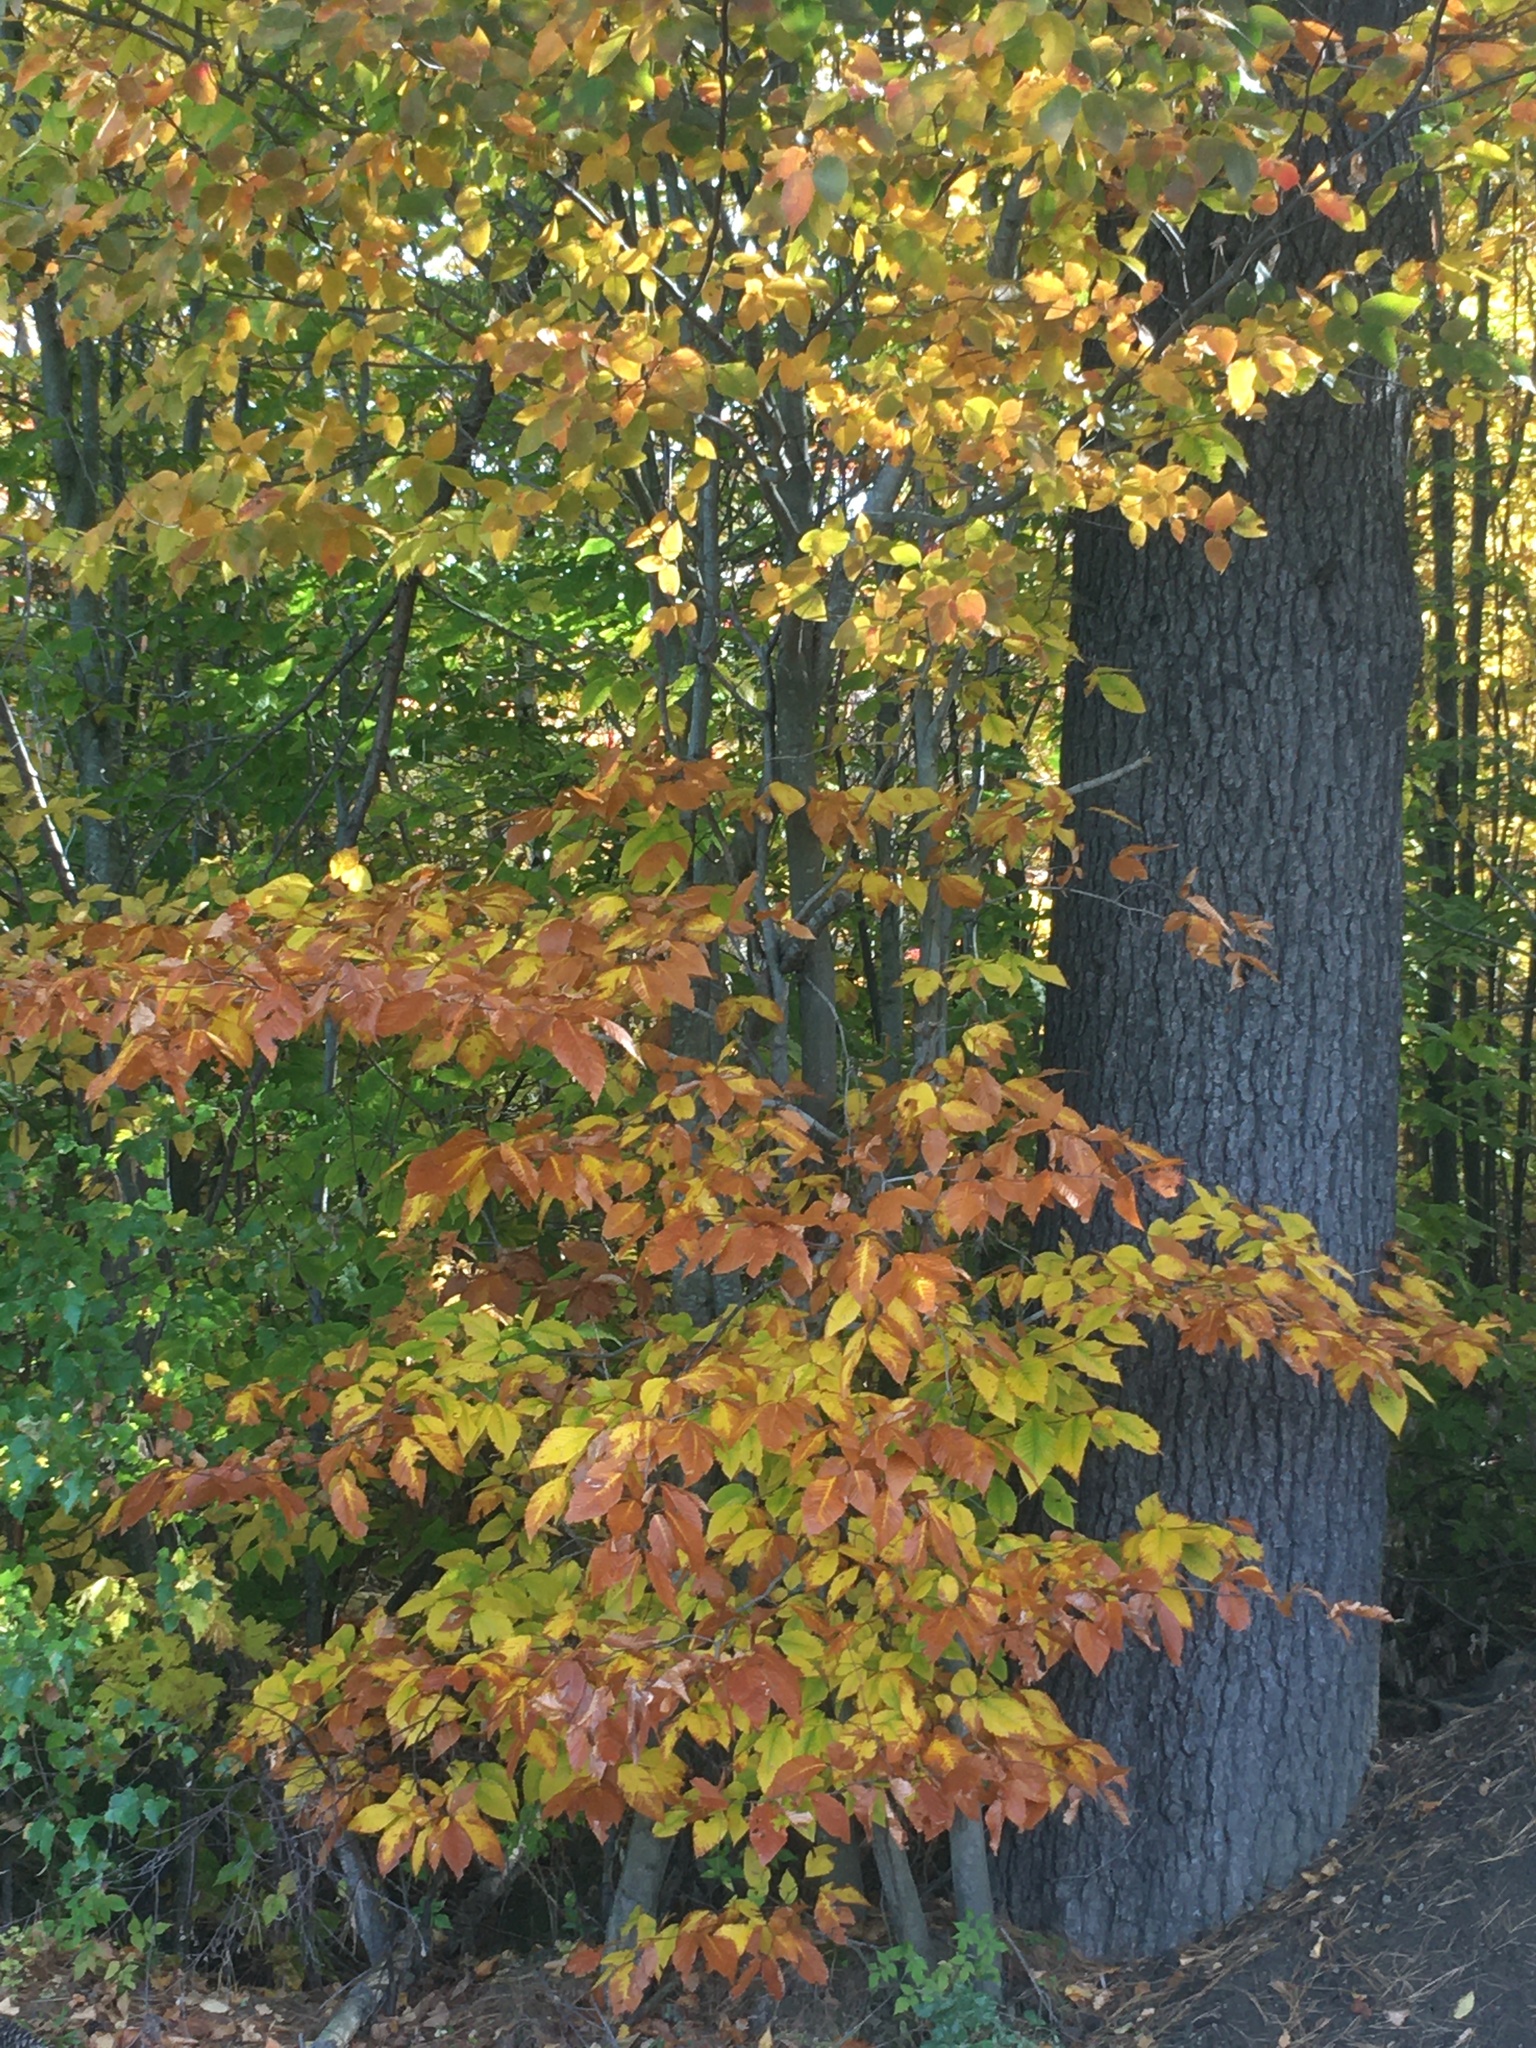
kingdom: Plantae
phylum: Tracheophyta
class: Magnoliopsida
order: Fagales
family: Fagaceae
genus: Fagus
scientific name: Fagus grandifolia
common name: American beech
